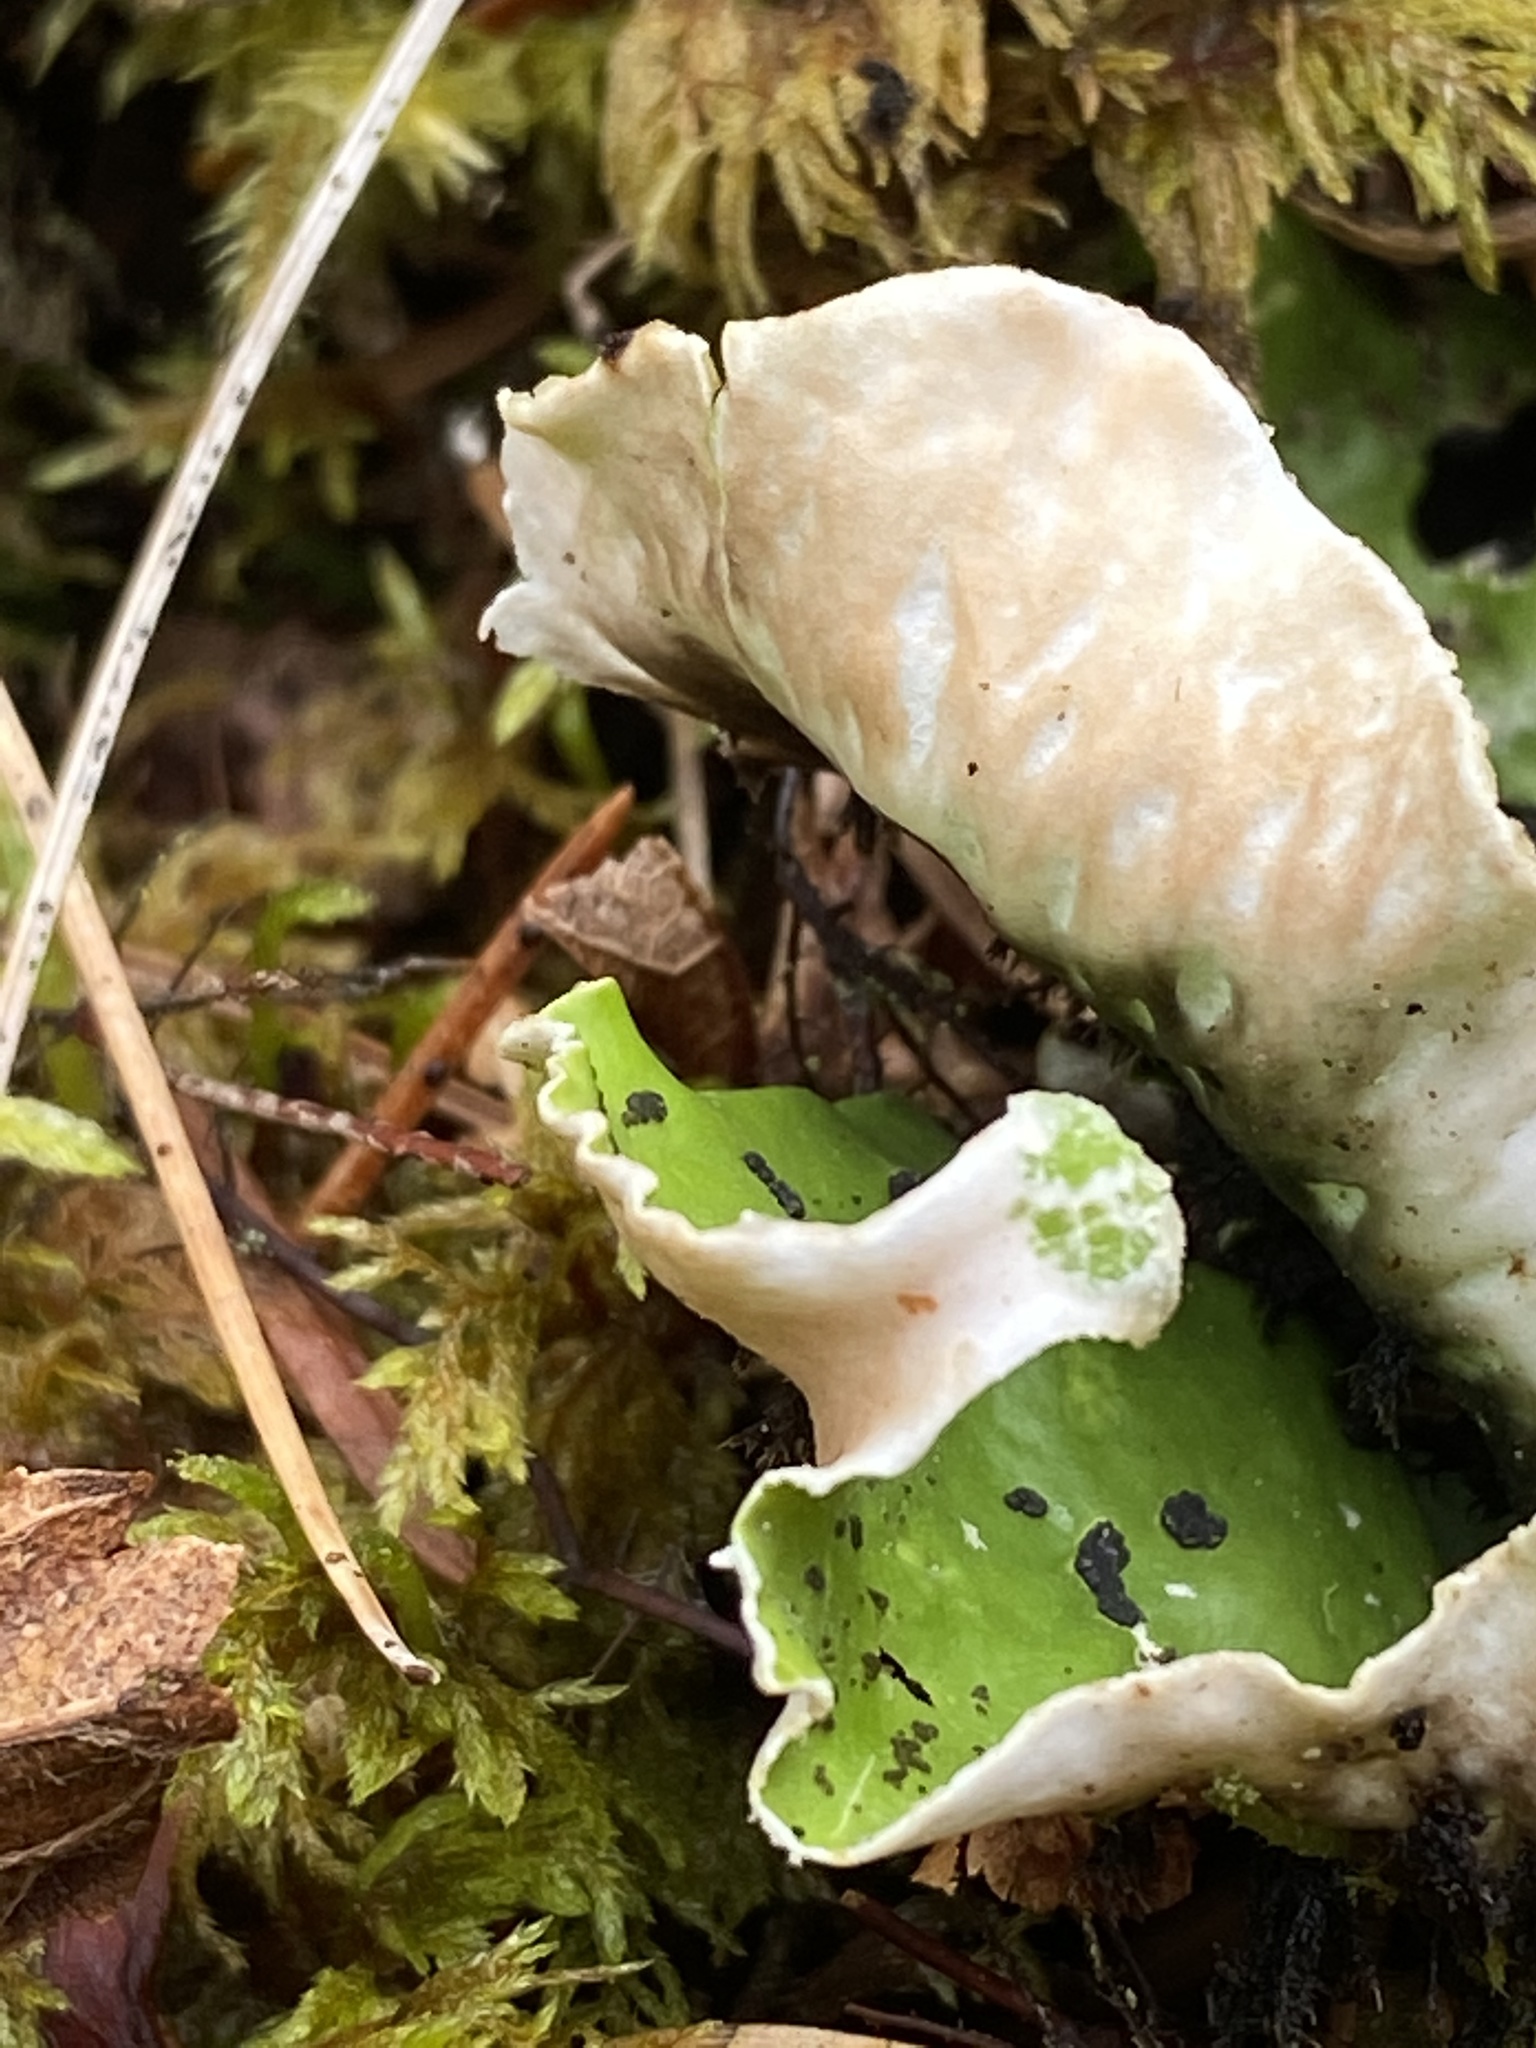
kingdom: Fungi
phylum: Ascomycota
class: Lecanoromycetes
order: Peltigerales
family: Peltigeraceae
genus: Peltigera
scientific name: Peltigera aphthosa
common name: Common freckle pelt lichen
